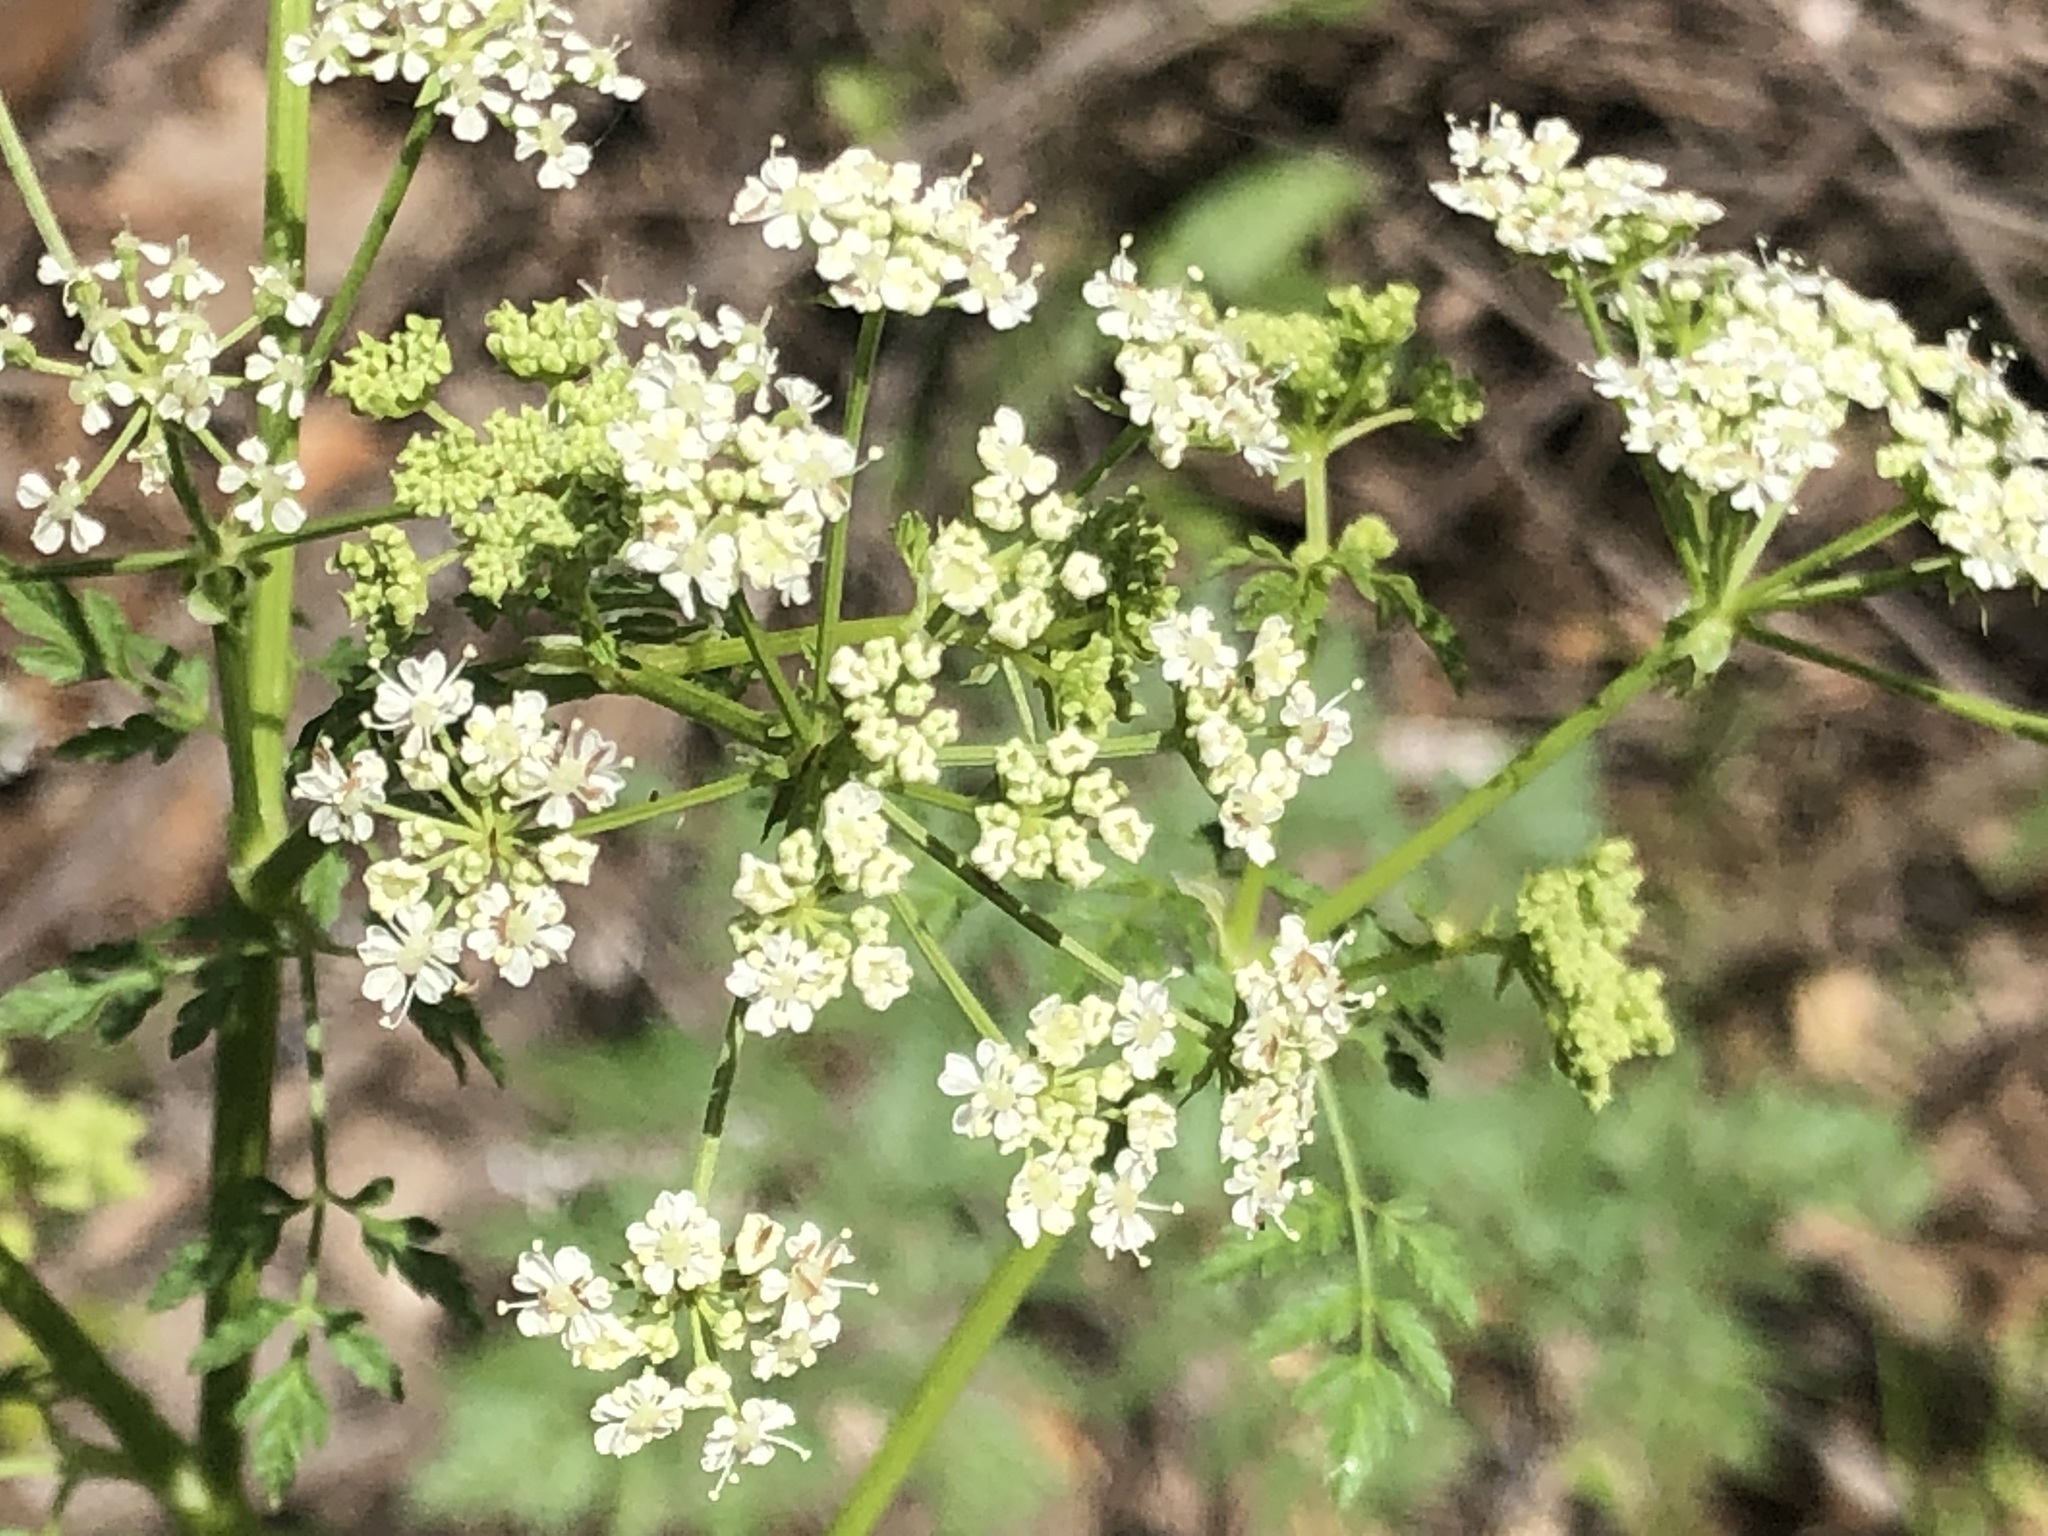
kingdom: Plantae
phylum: Tracheophyta
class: Magnoliopsida
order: Apiales
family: Apiaceae
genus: Conium
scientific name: Conium maculatum
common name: Hemlock
